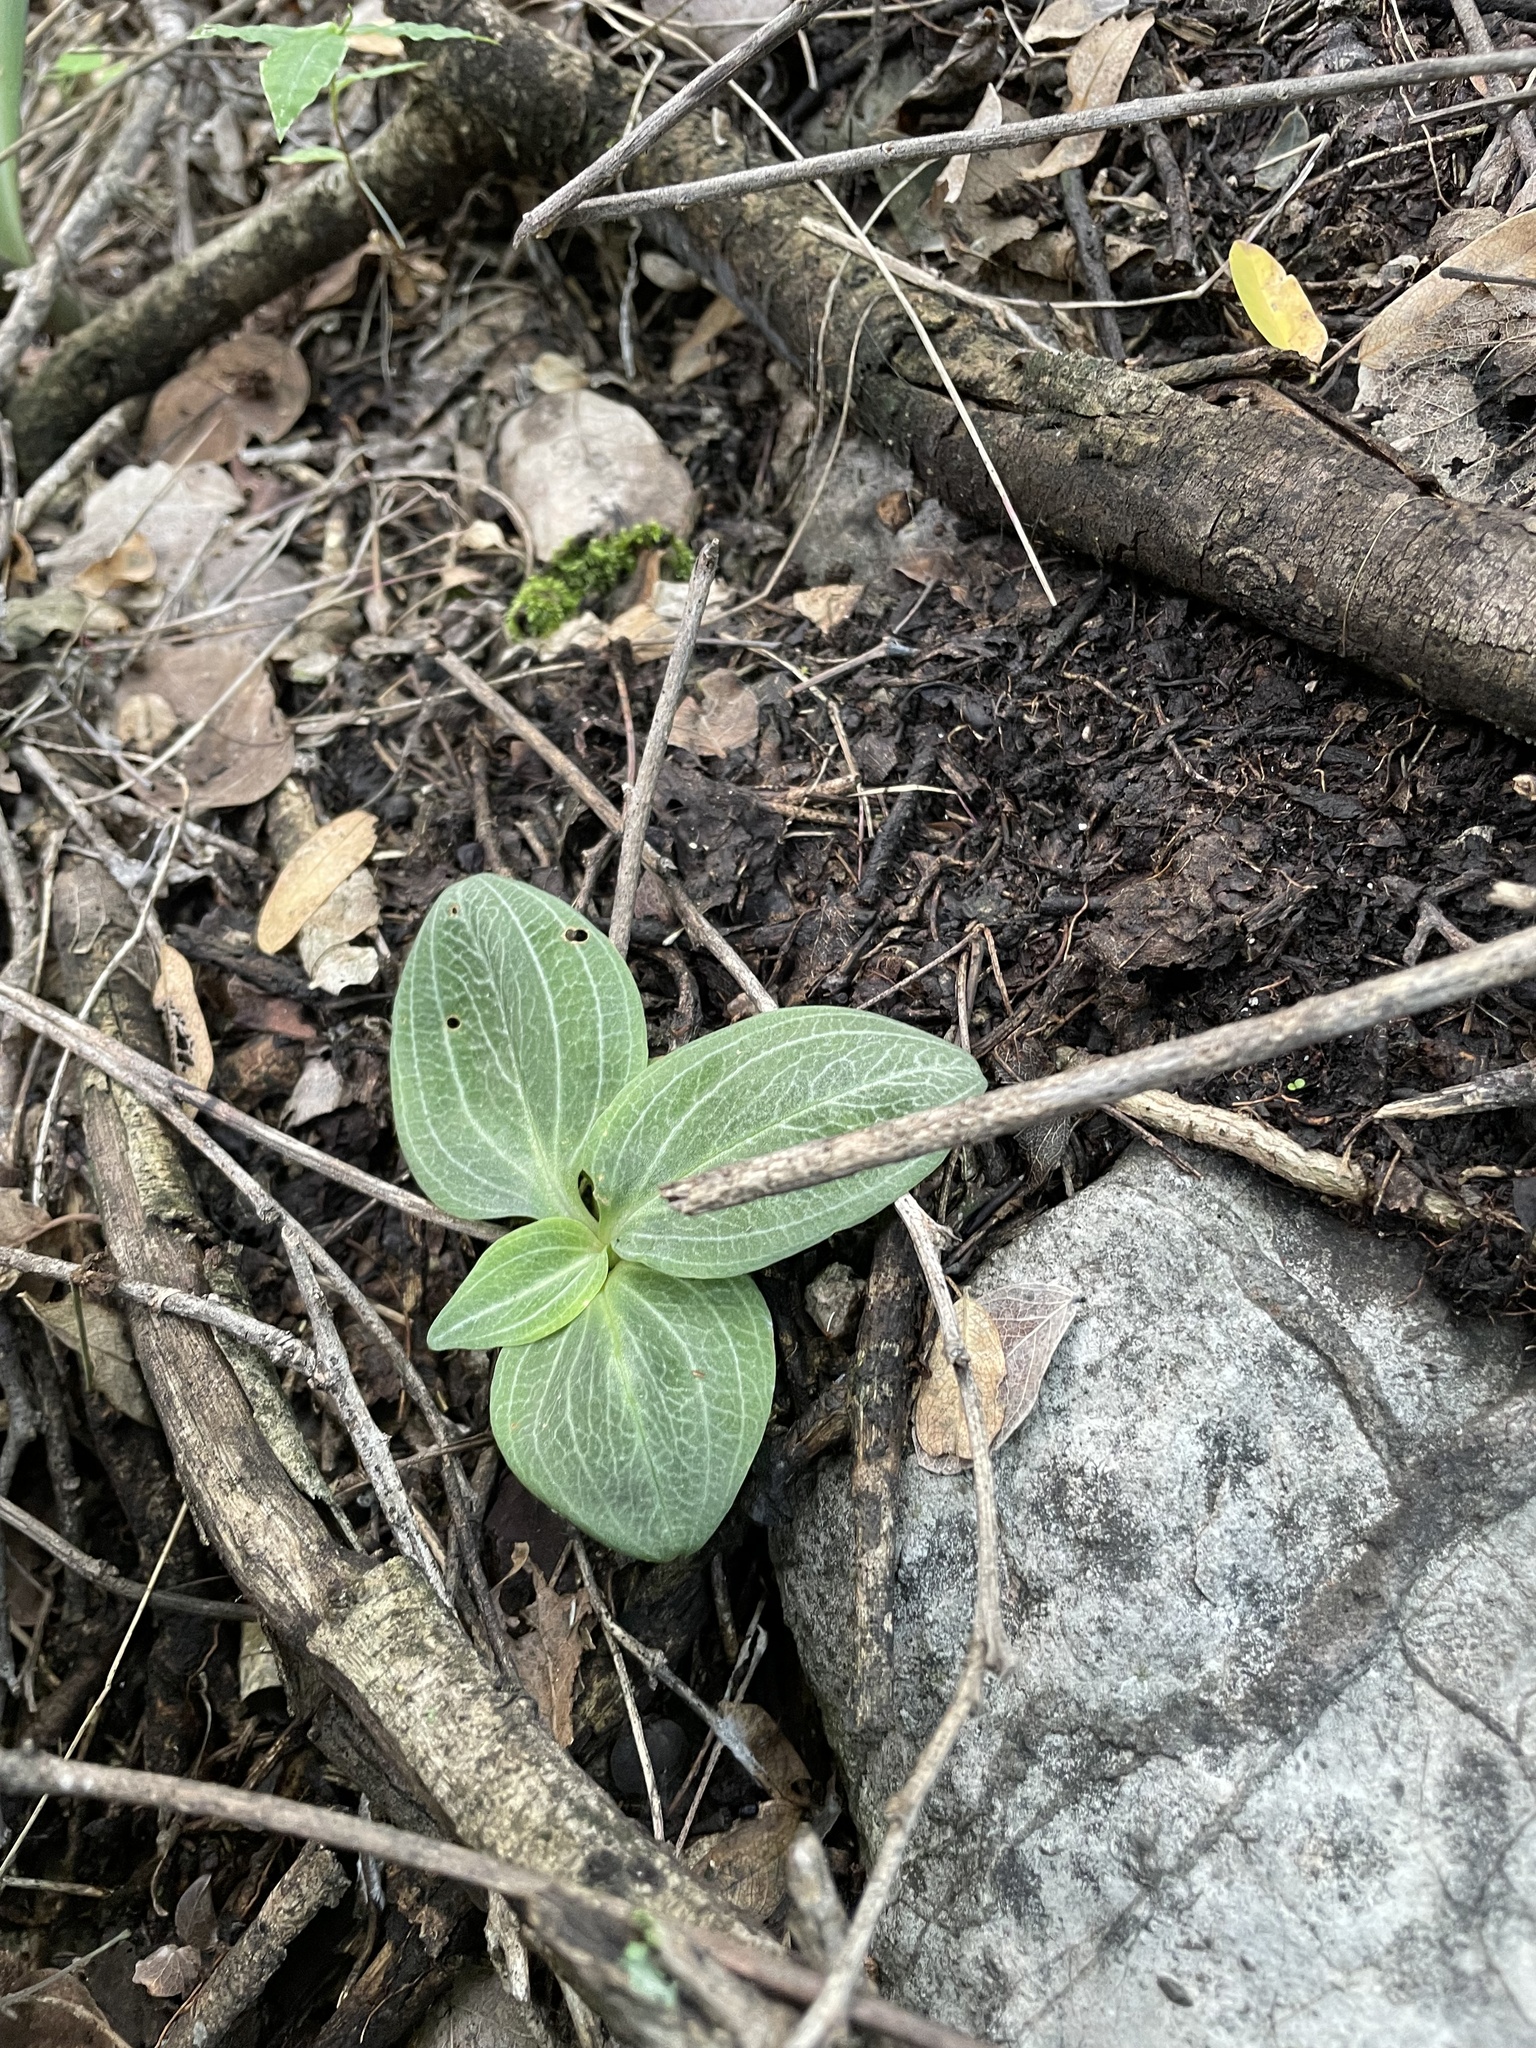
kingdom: Plantae
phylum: Tracheophyta
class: Liliopsida
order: Asparagales
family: Orchidaceae
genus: Mesadenus
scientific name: Mesadenus tenuissimus
